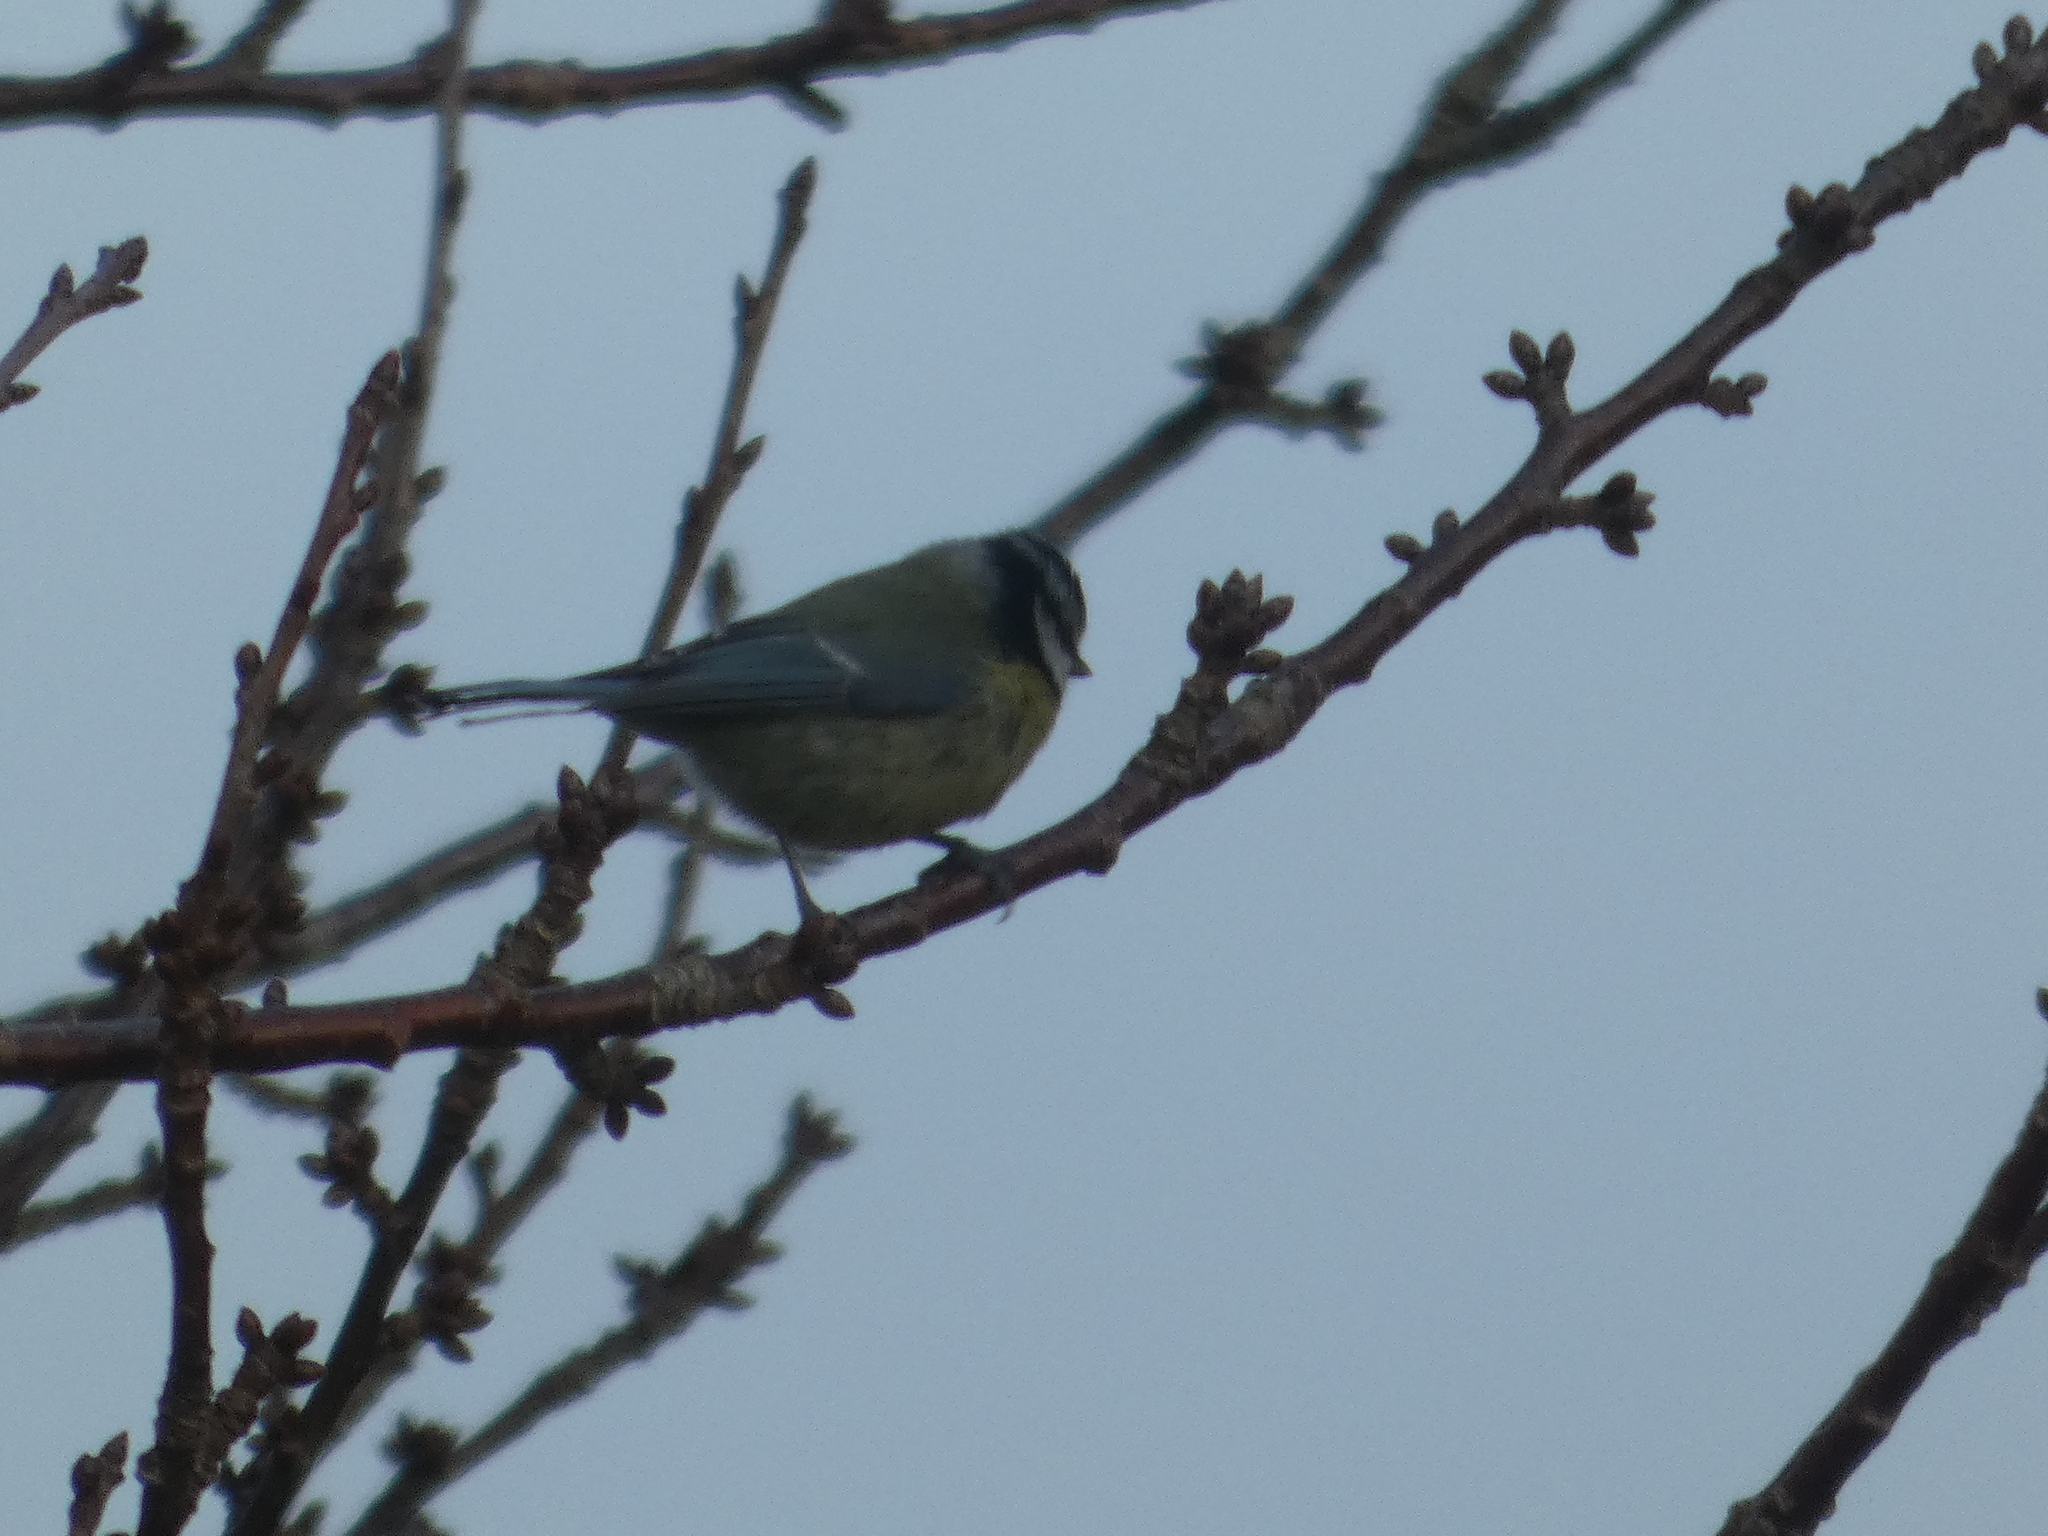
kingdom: Animalia
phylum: Chordata
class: Aves
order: Passeriformes
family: Paridae
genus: Cyanistes
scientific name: Cyanistes caeruleus
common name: Eurasian blue tit
